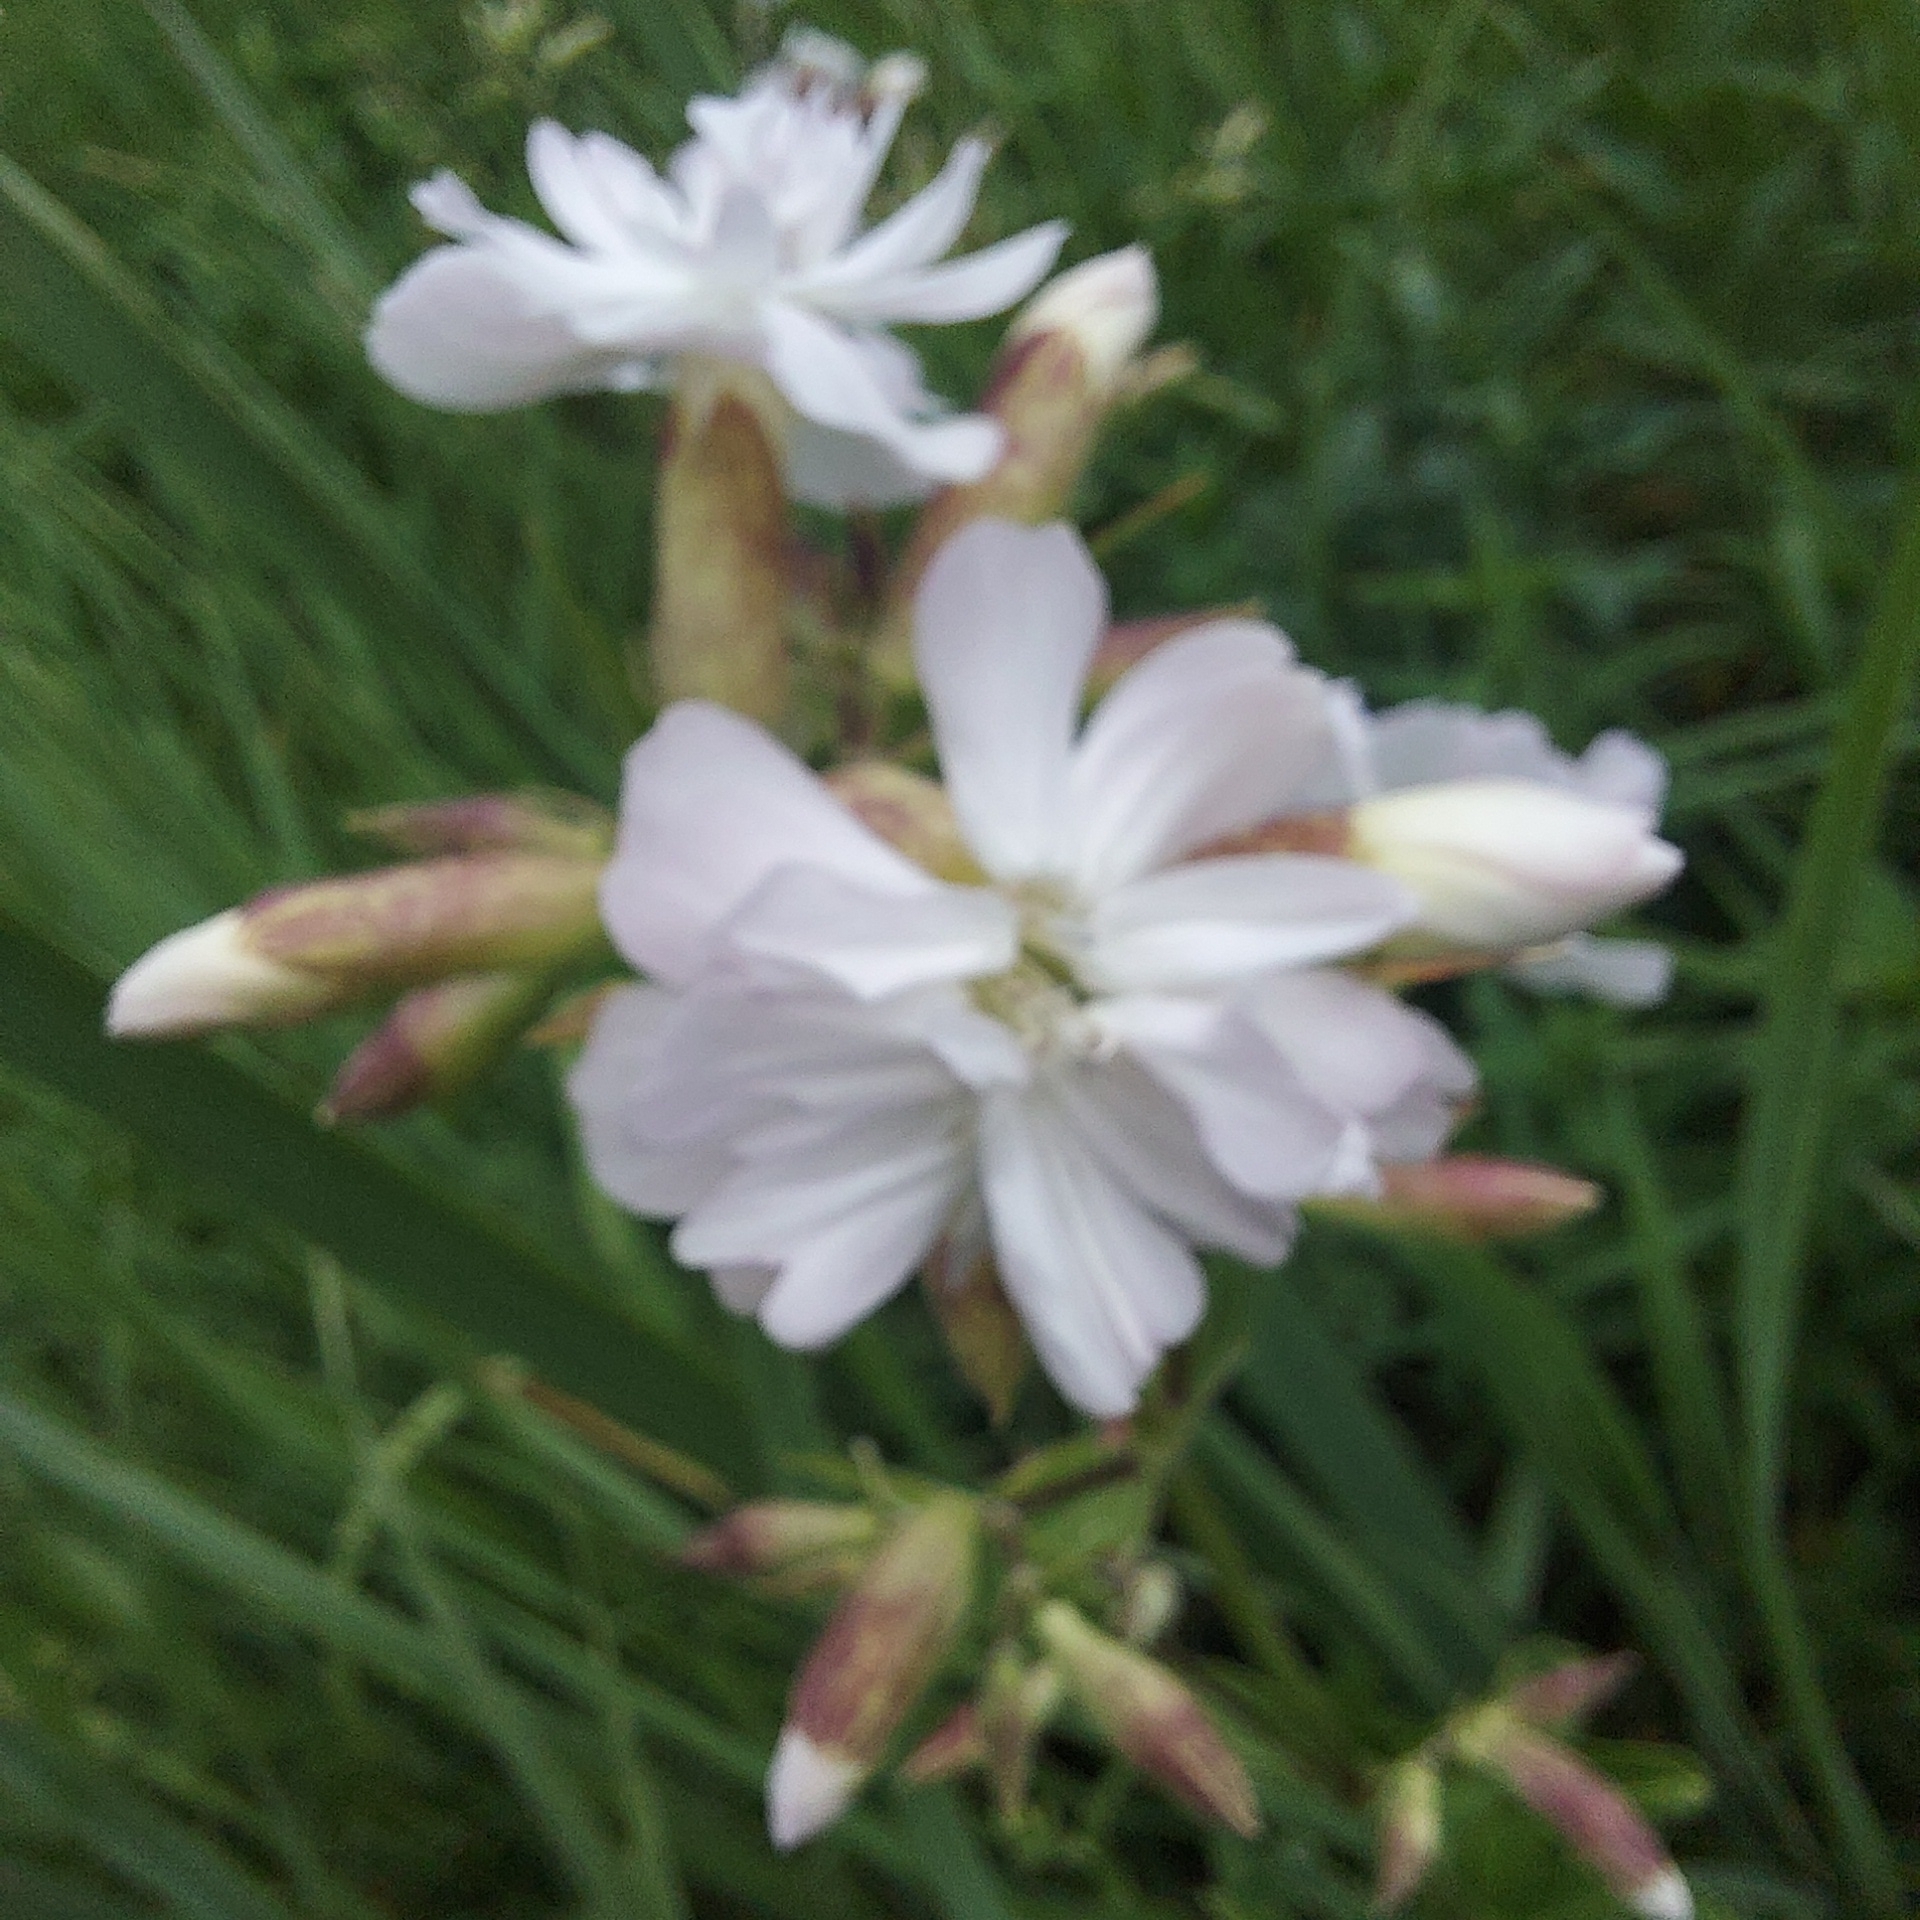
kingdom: Plantae
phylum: Tracheophyta
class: Magnoliopsida
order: Caryophyllales
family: Caryophyllaceae
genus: Saponaria
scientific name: Saponaria officinalis
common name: Soapwort
